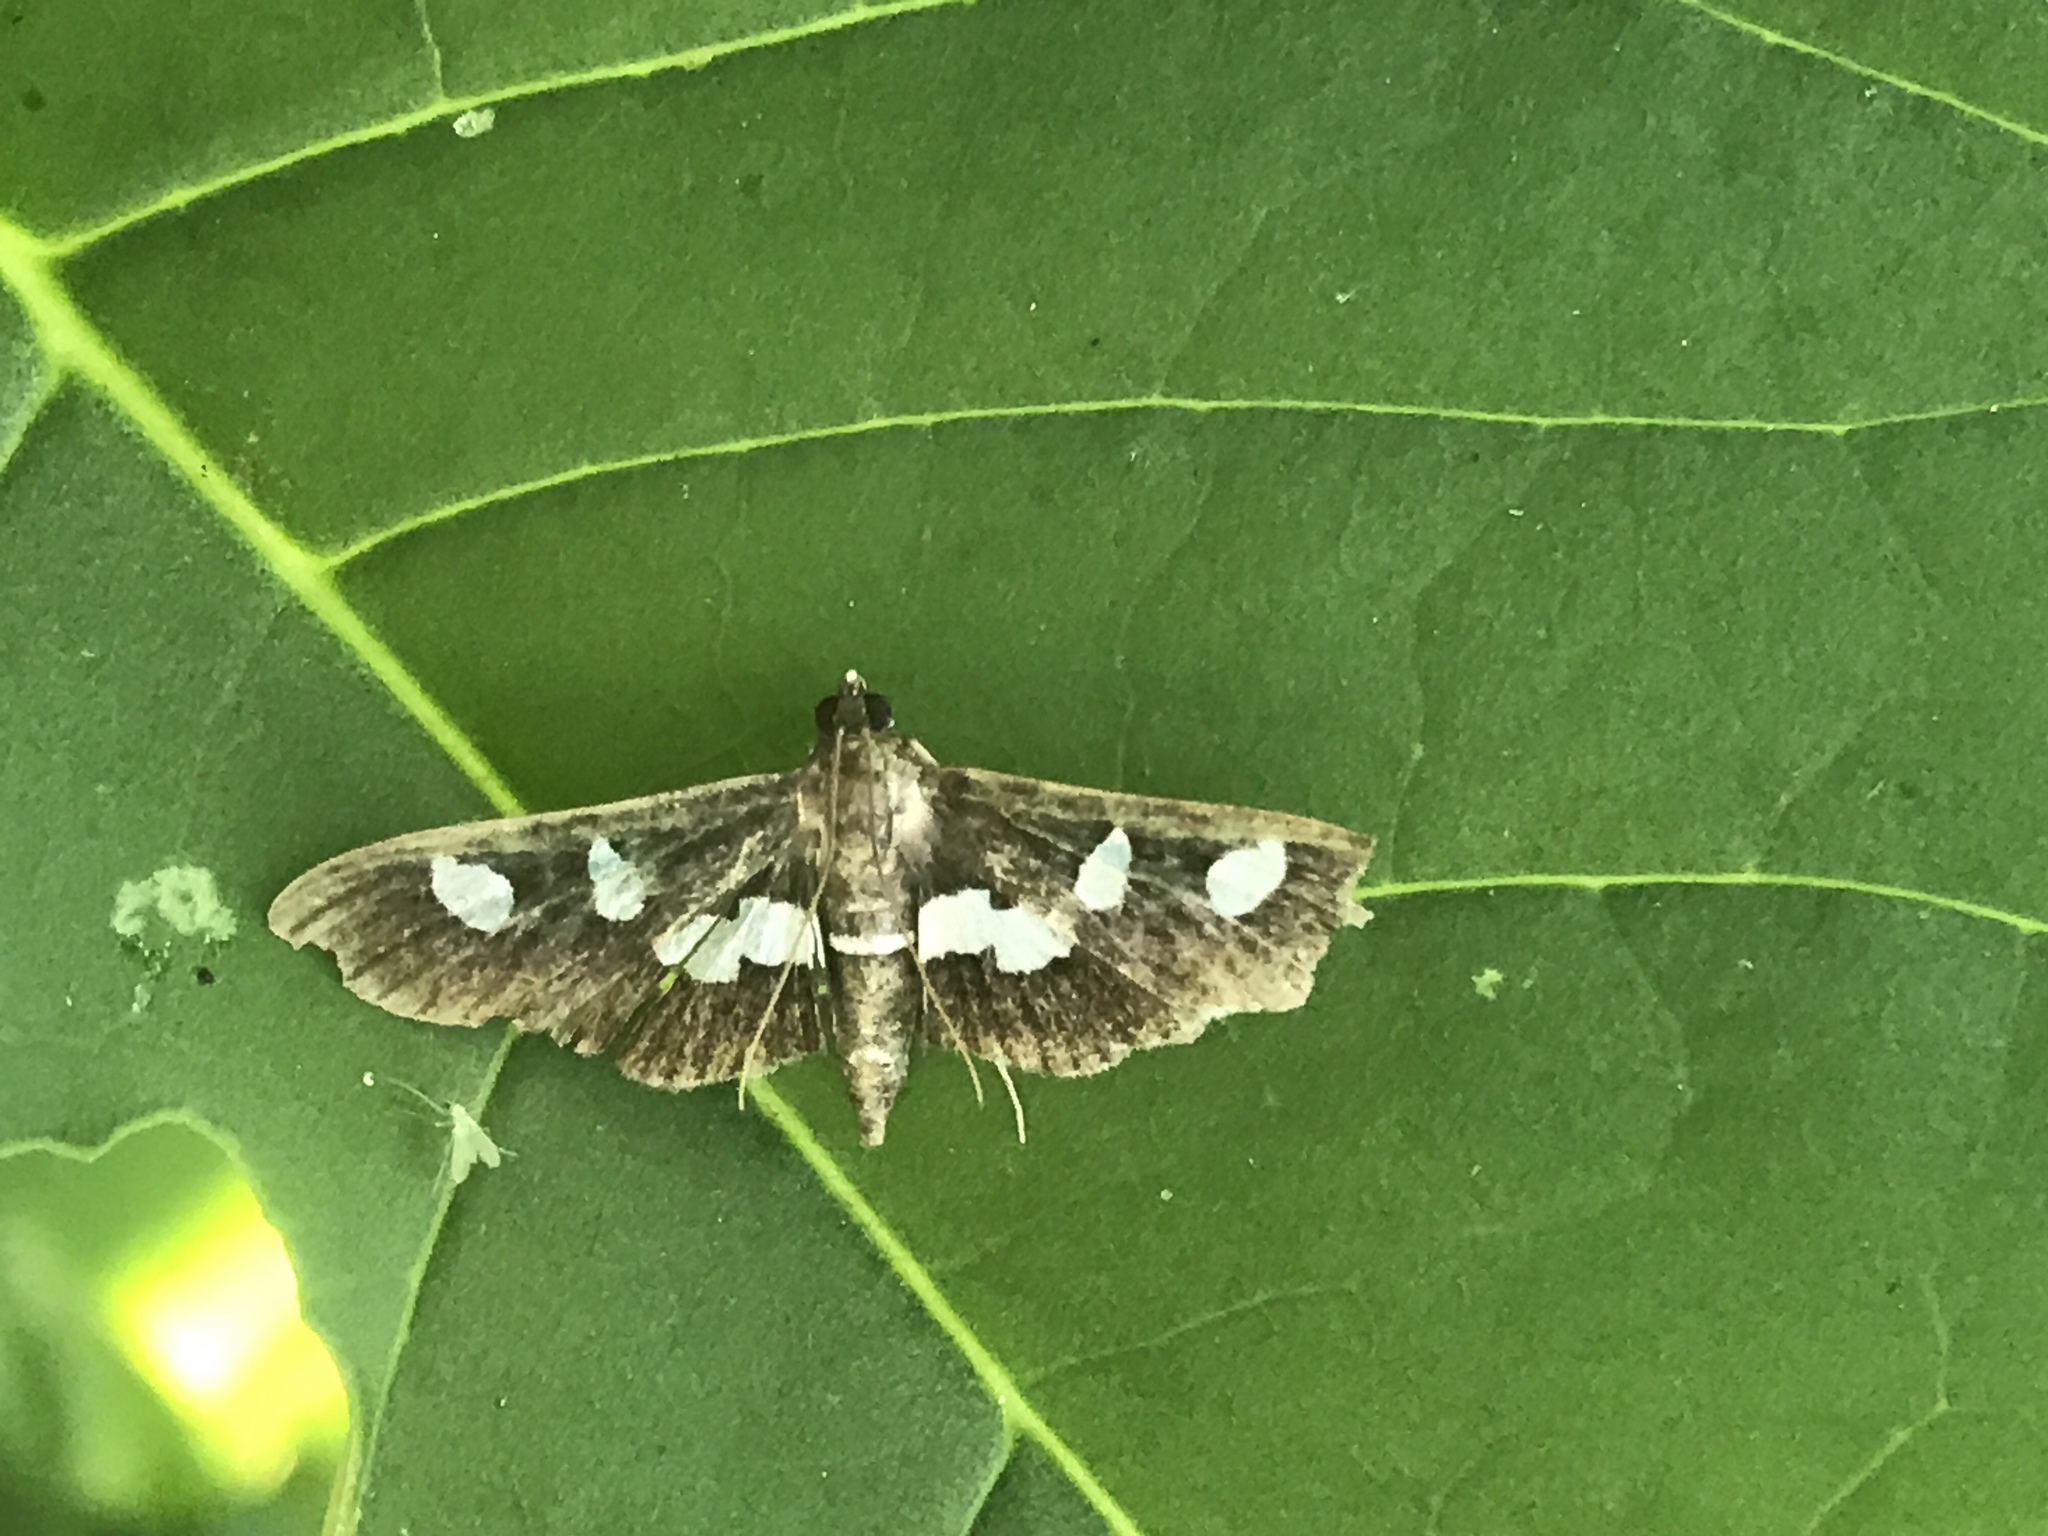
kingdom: Animalia
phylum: Arthropoda
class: Insecta
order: Lepidoptera
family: Crambidae
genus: Desmia
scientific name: Desmia
